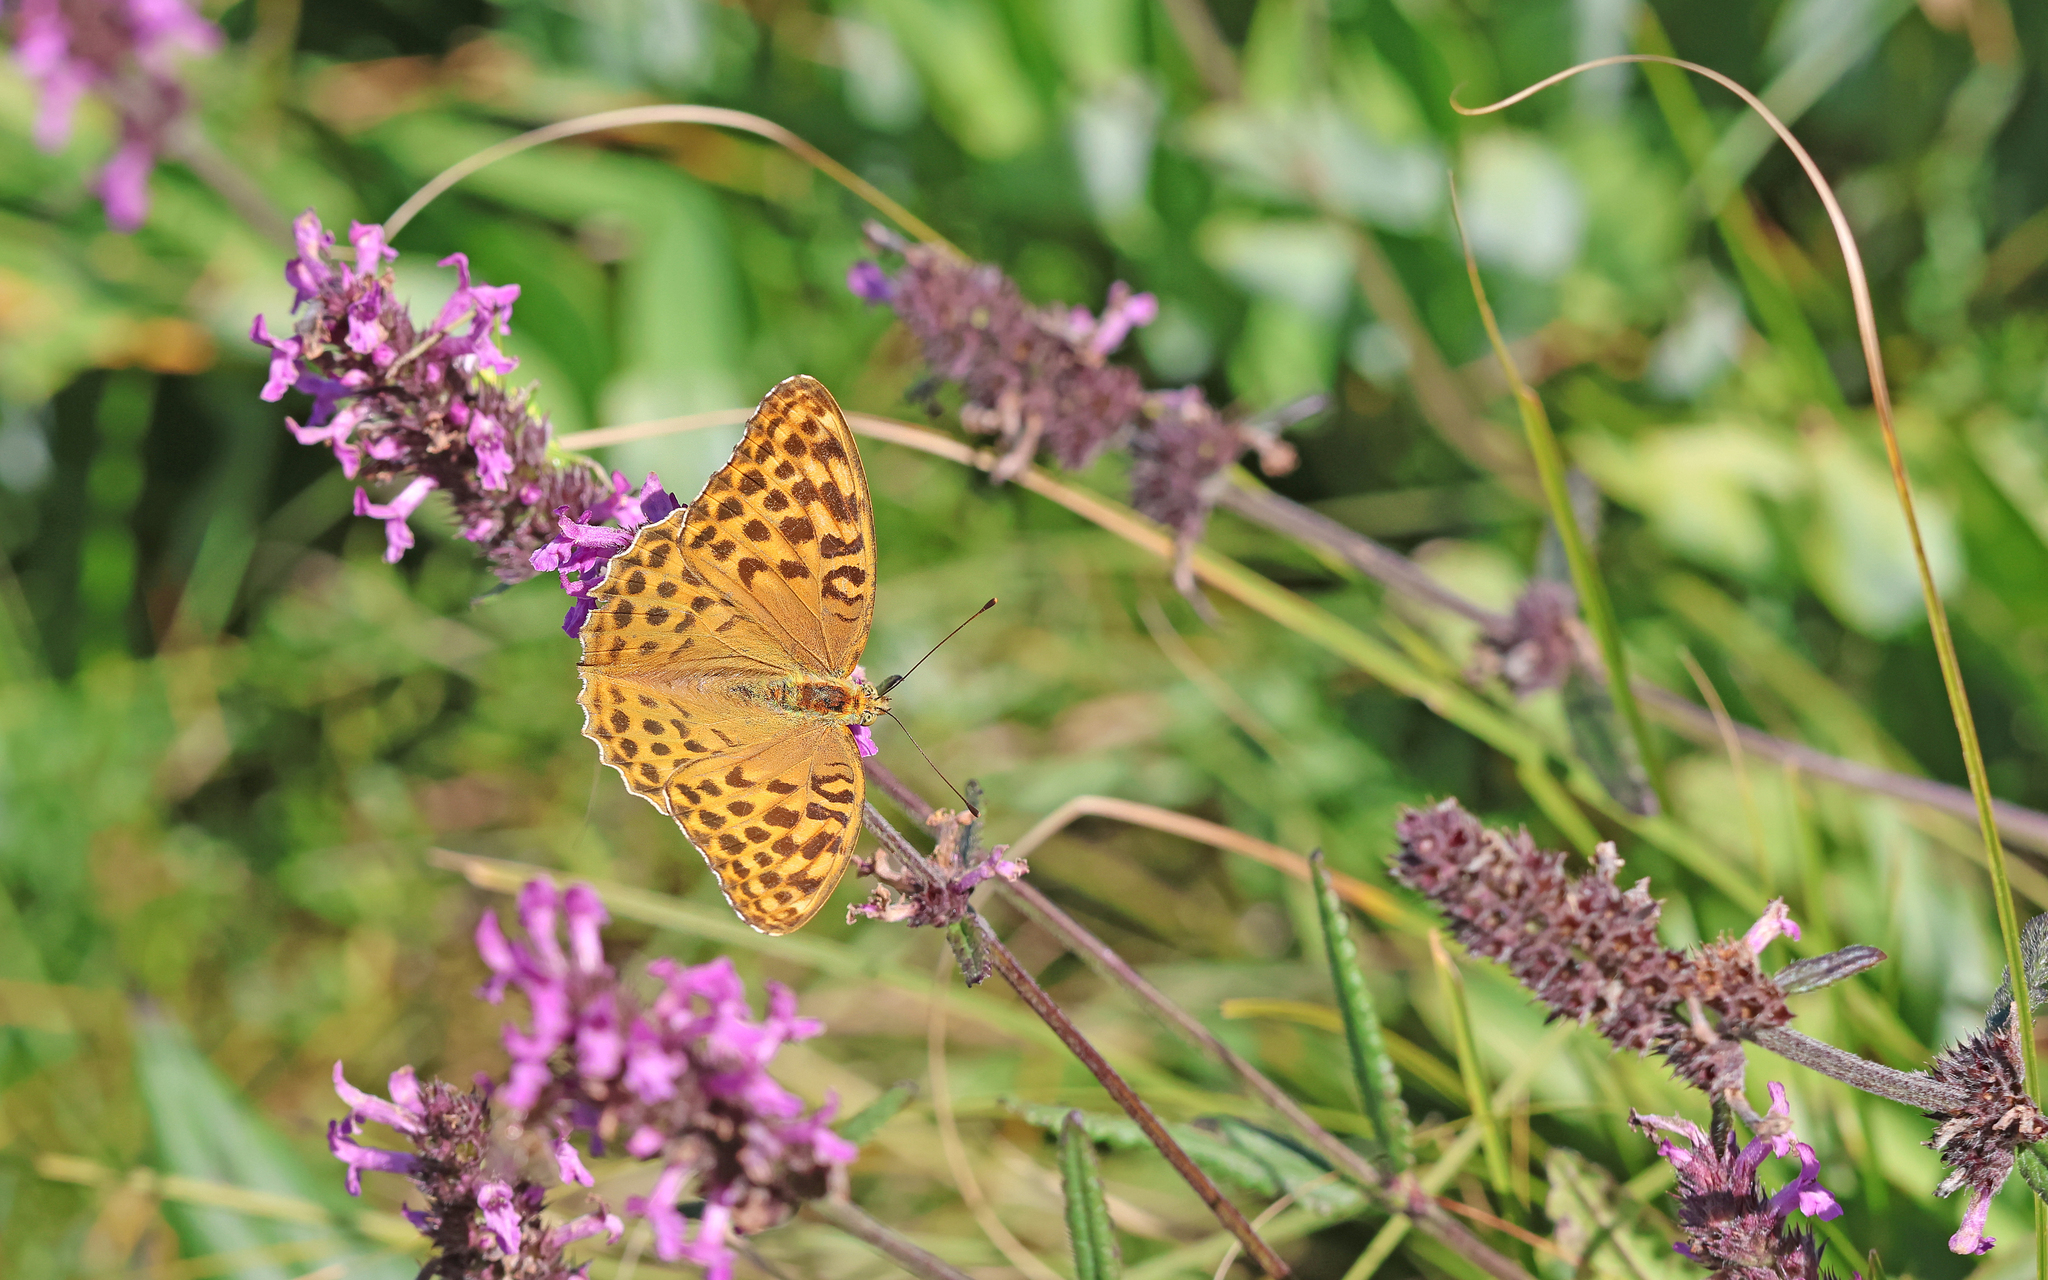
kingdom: Animalia
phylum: Arthropoda
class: Insecta
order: Lepidoptera
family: Nymphalidae
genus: Argynnis
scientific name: Argynnis paphia
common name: Silver-washed fritillary
